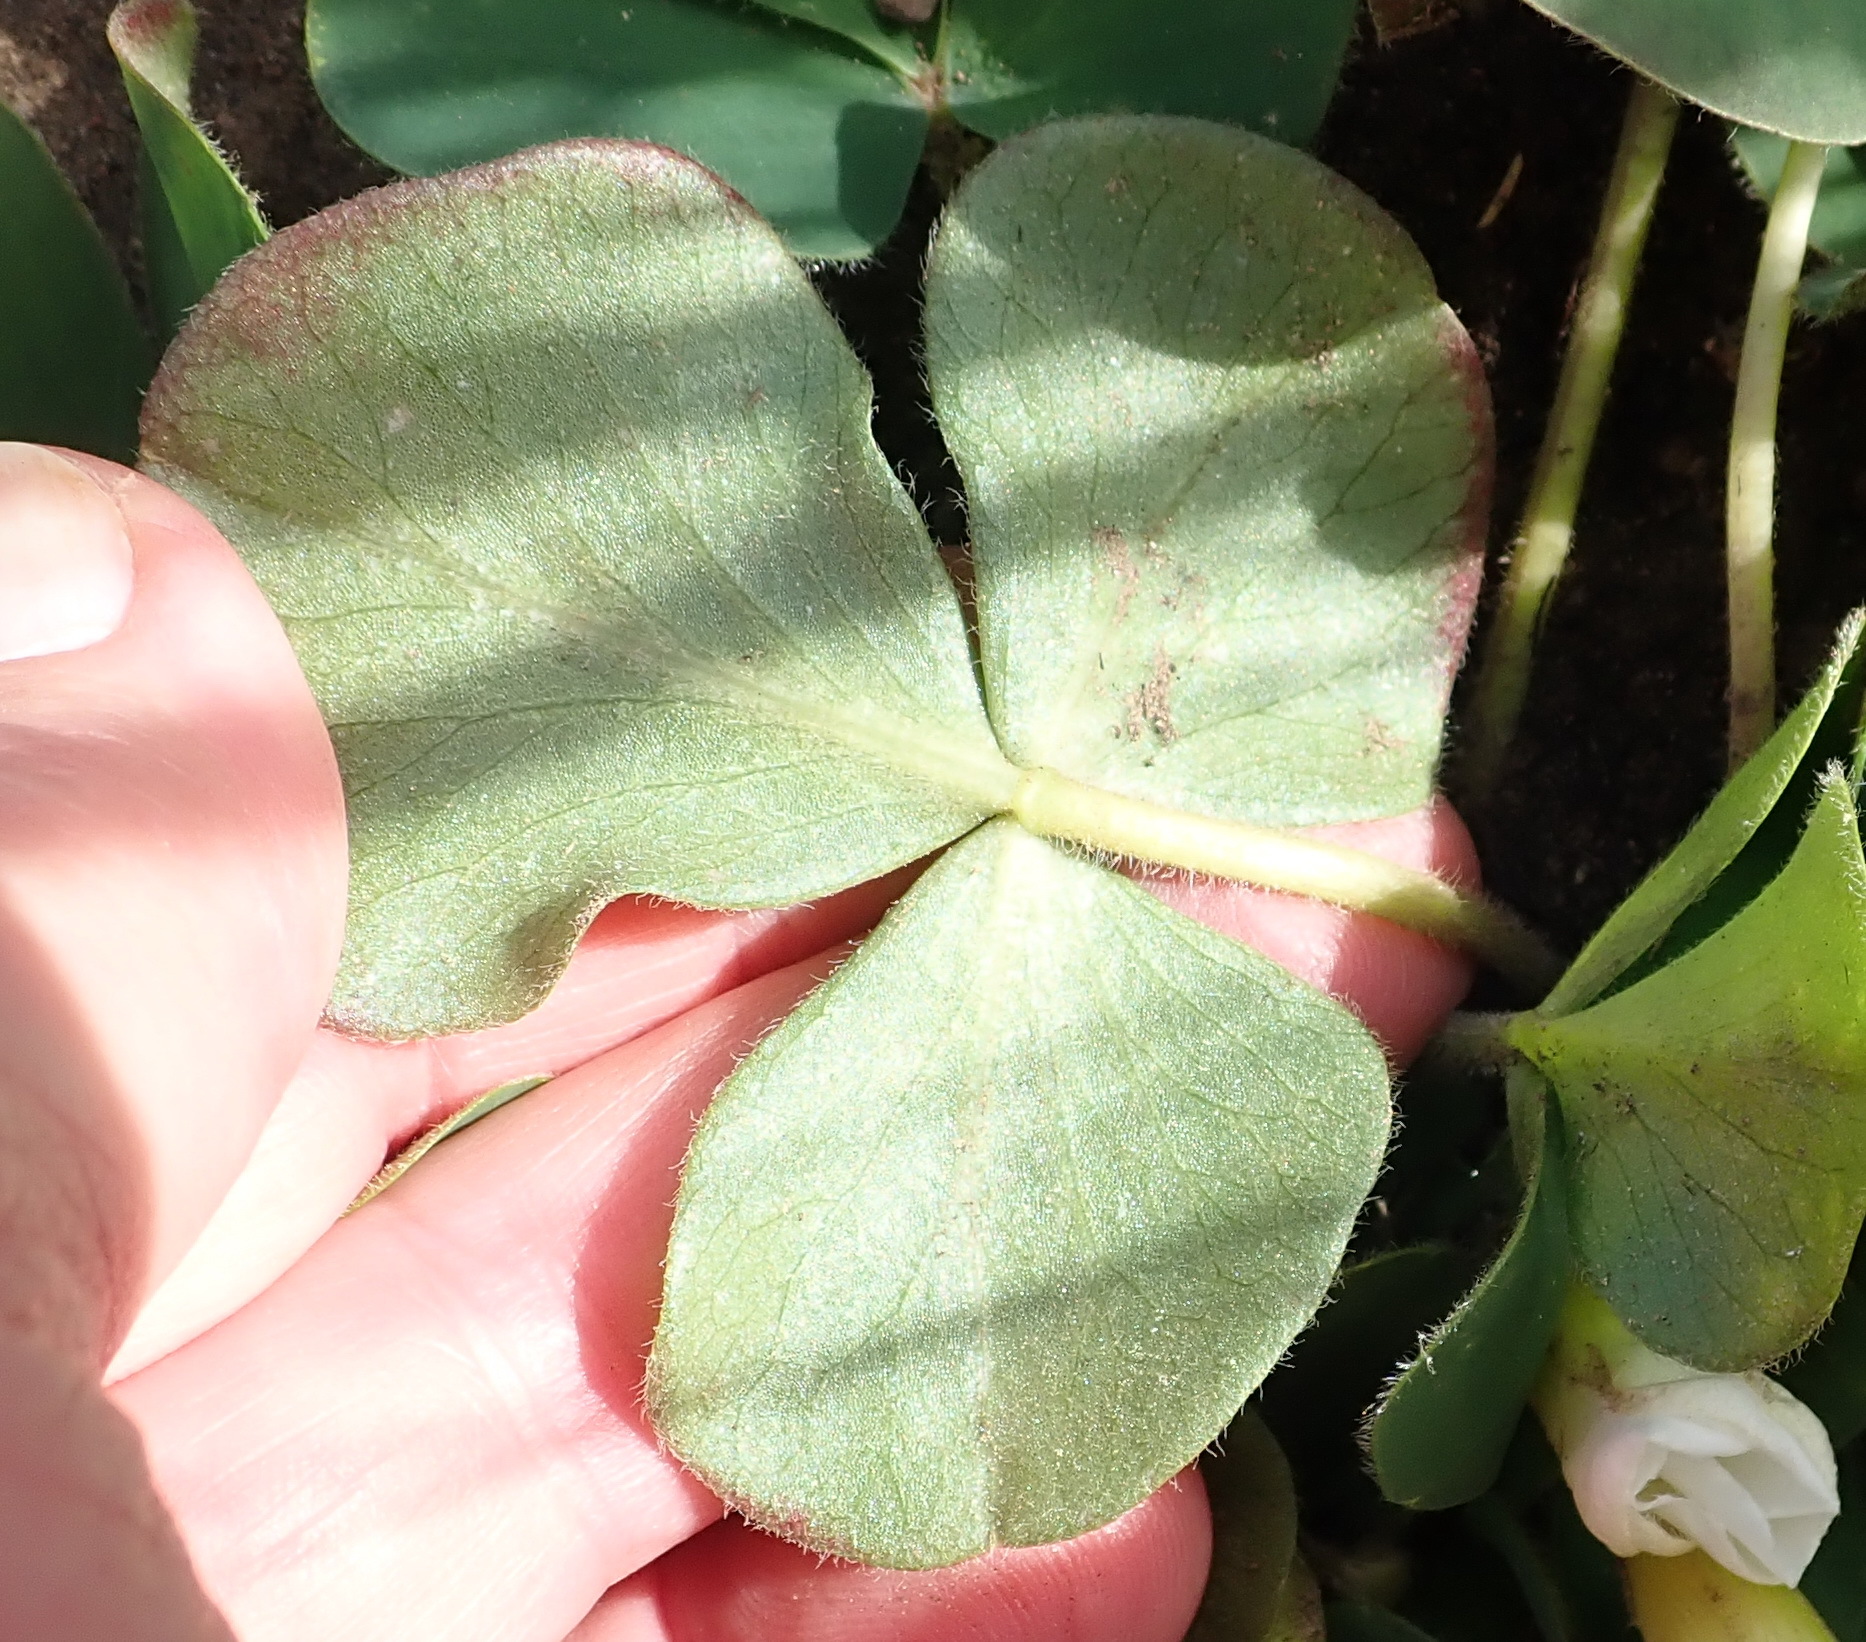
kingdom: Plantae
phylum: Tracheophyta
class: Magnoliopsida
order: Oxalidales
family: Oxalidaceae
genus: Oxalis
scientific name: Oxalis purpurea
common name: Purple woodsorrel
